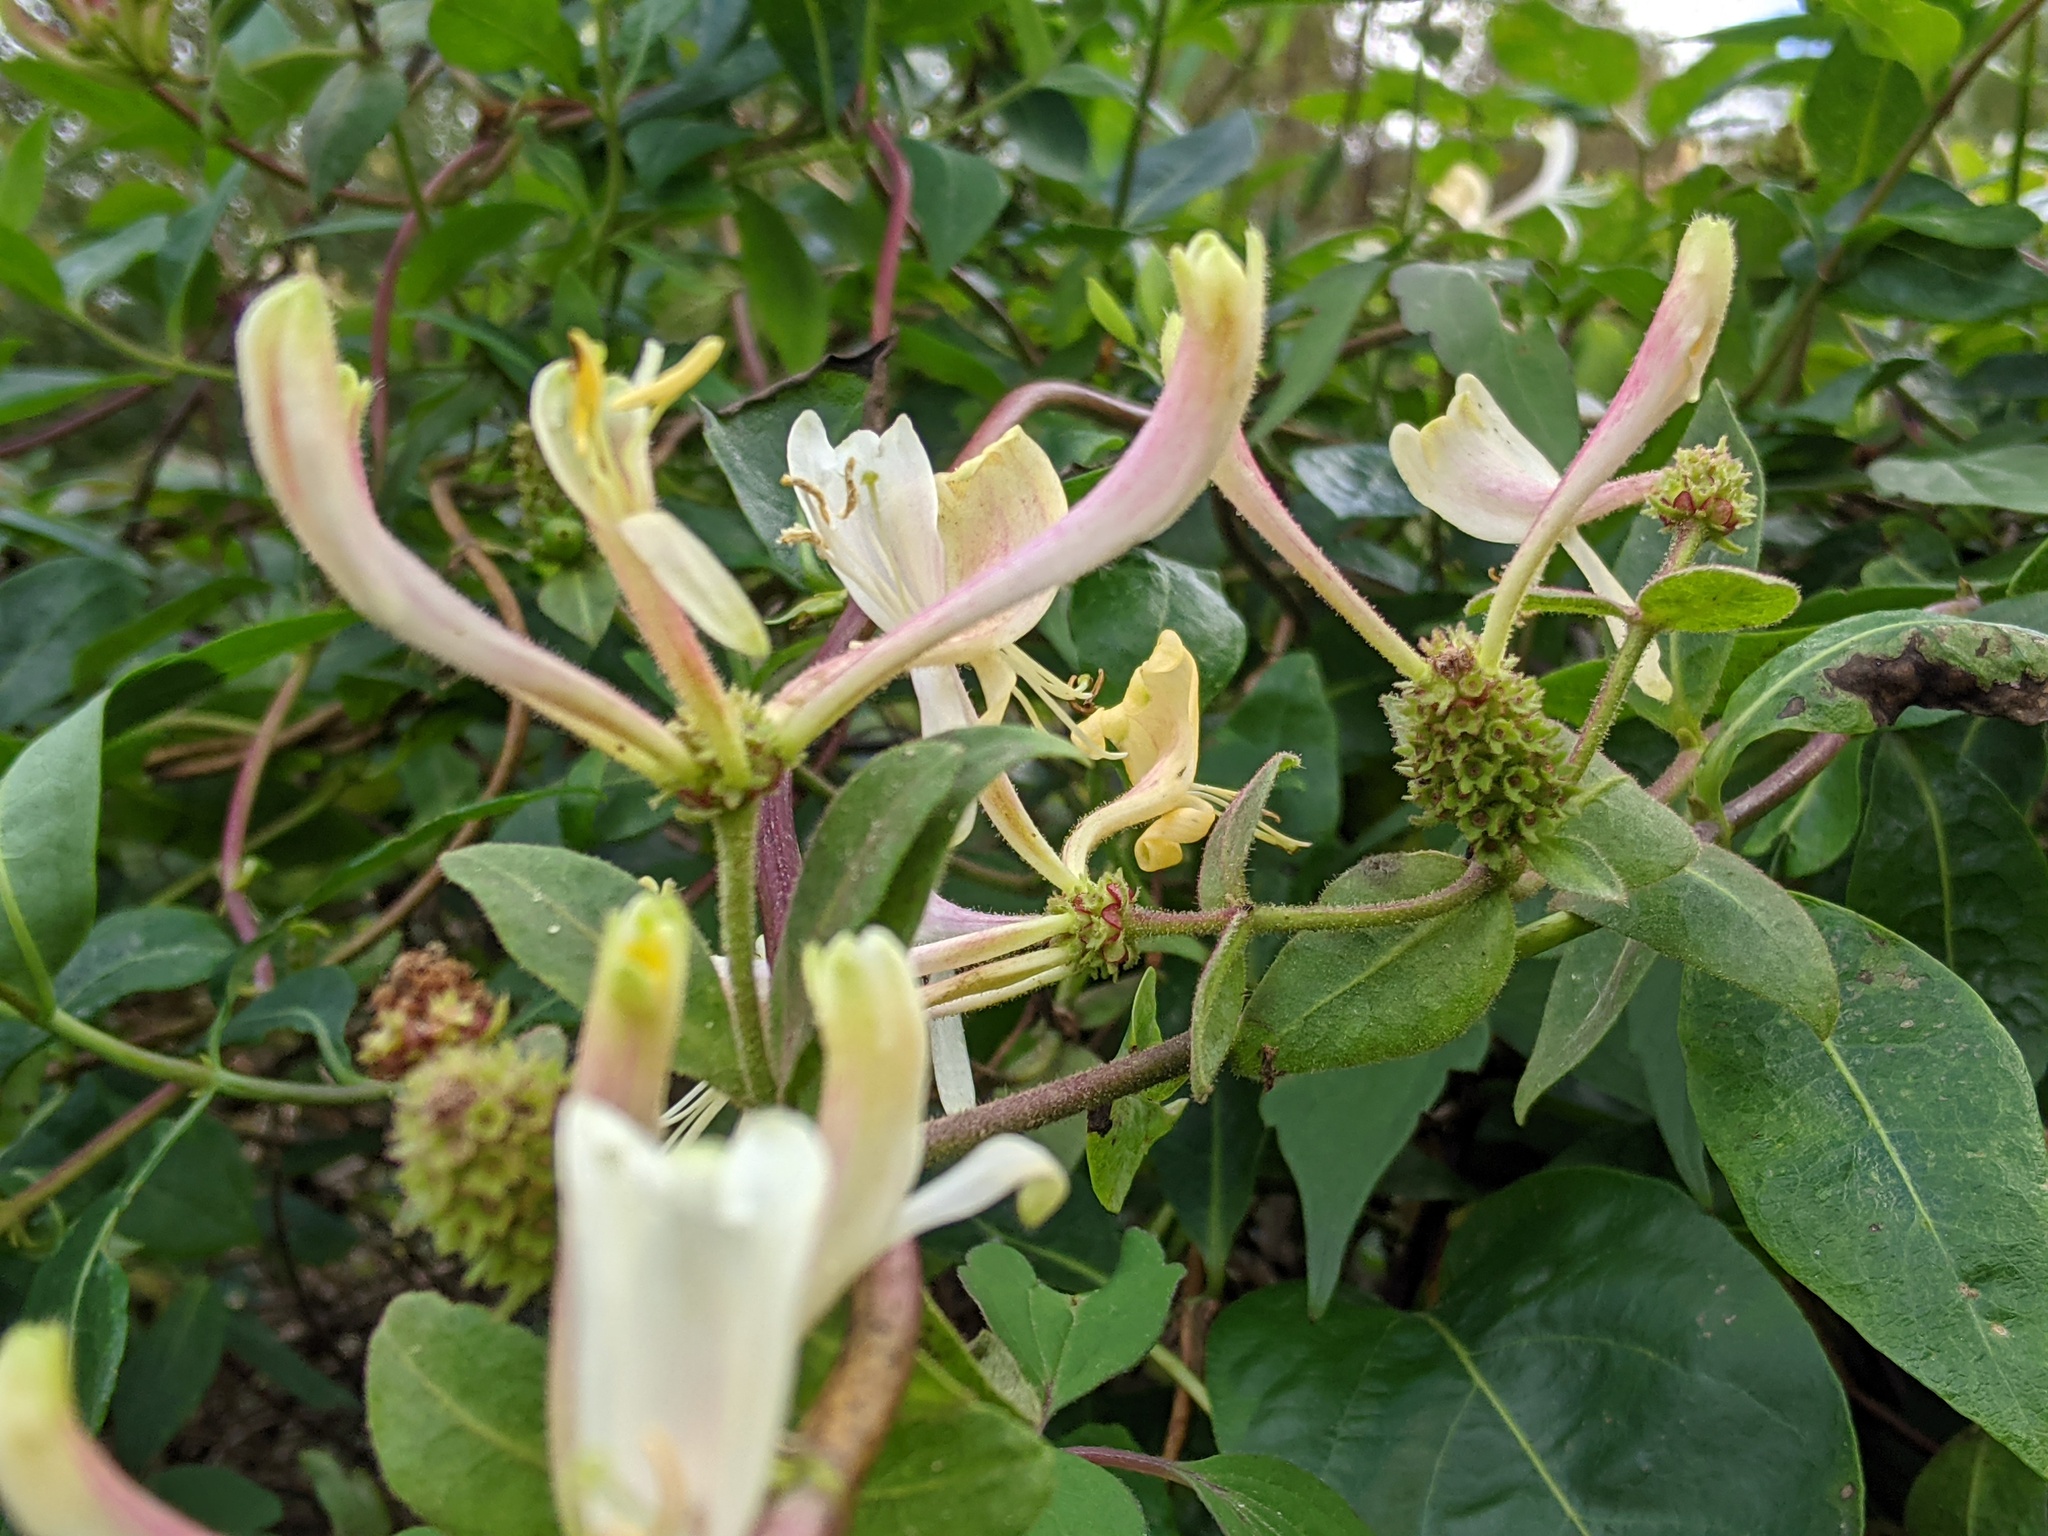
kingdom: Plantae
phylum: Tracheophyta
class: Magnoliopsida
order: Dipsacales
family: Caprifoliaceae
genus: Lonicera
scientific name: Lonicera periclymenum
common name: European honeysuckle
